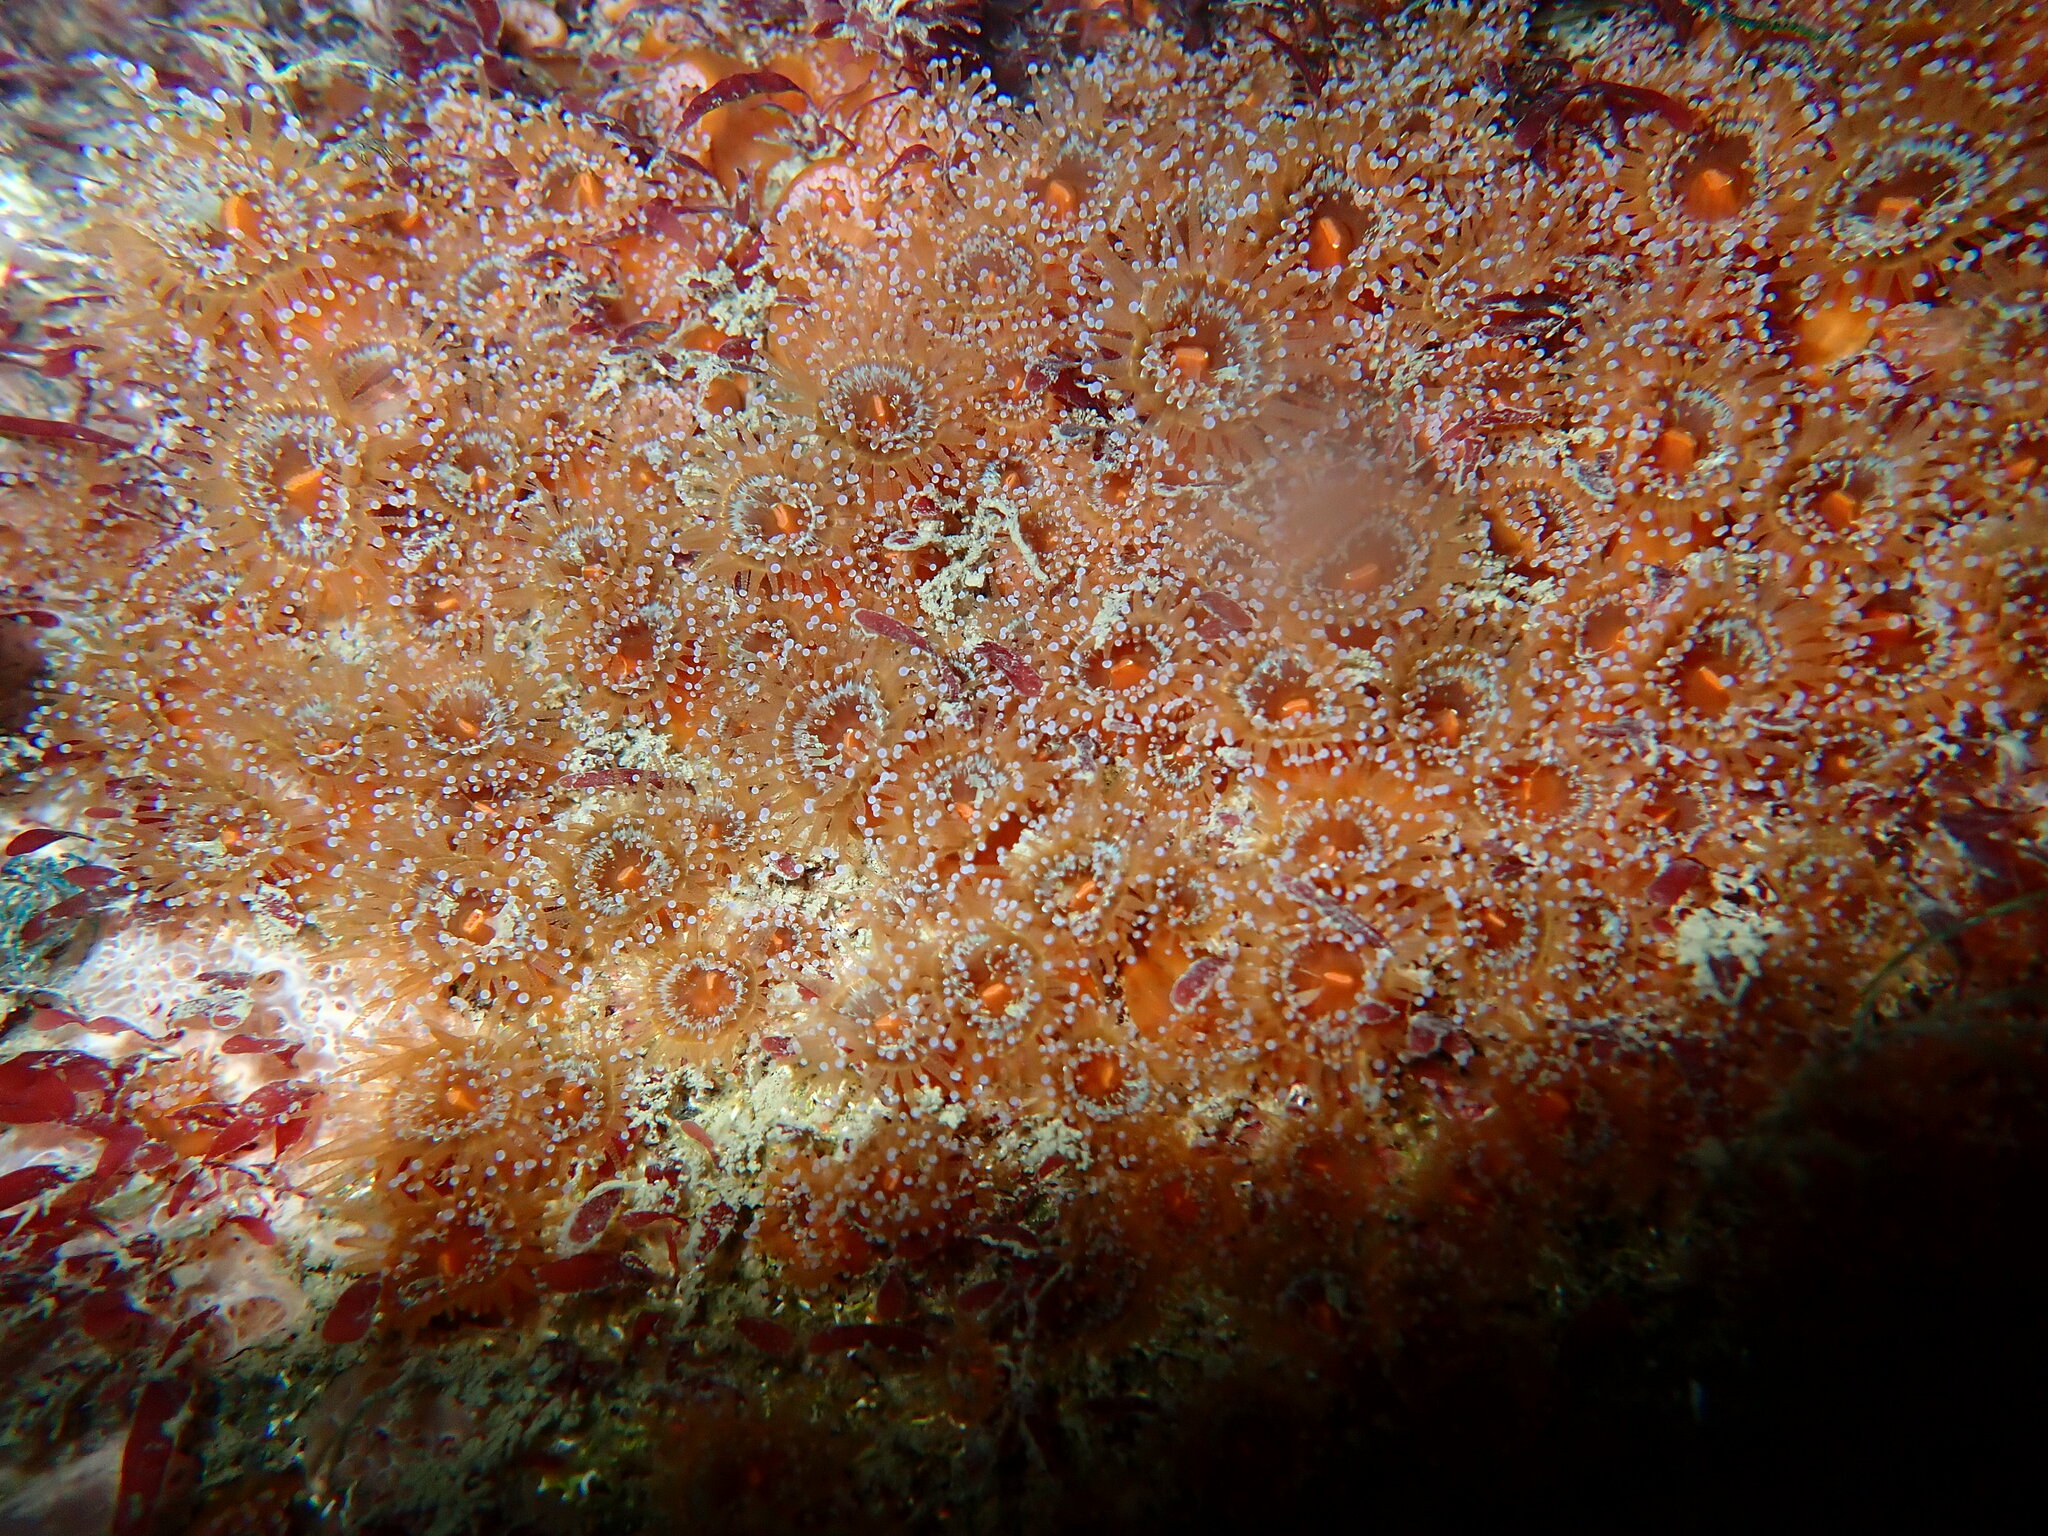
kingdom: Animalia
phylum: Cnidaria
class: Anthozoa
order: Corallimorpharia
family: Corallimorphidae
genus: Corynactis
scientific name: Corynactis australis
